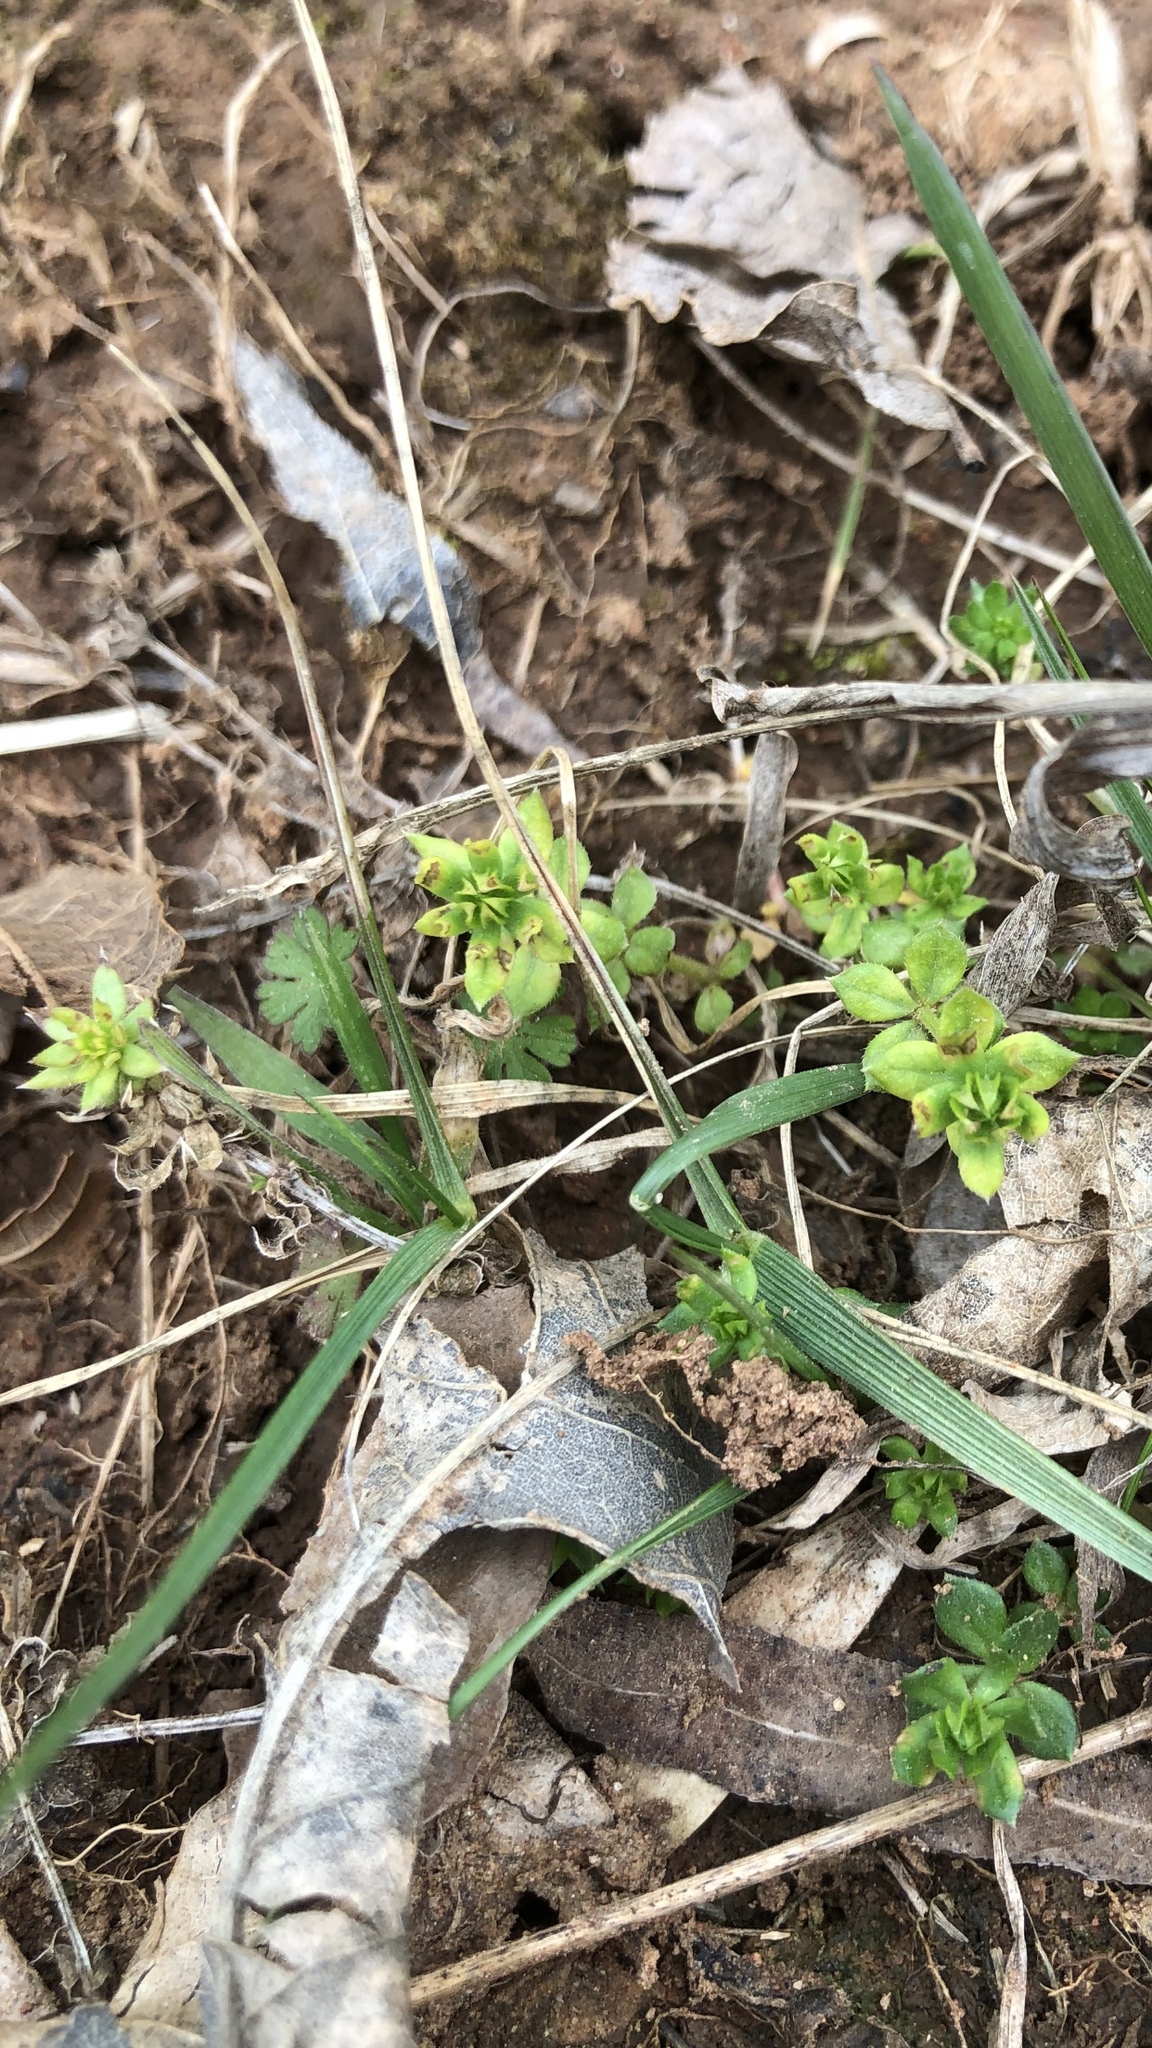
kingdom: Plantae
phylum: Tracheophyta
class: Magnoliopsida
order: Gentianales
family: Rubiaceae
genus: Sherardia
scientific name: Sherardia arvensis
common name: Field madder
